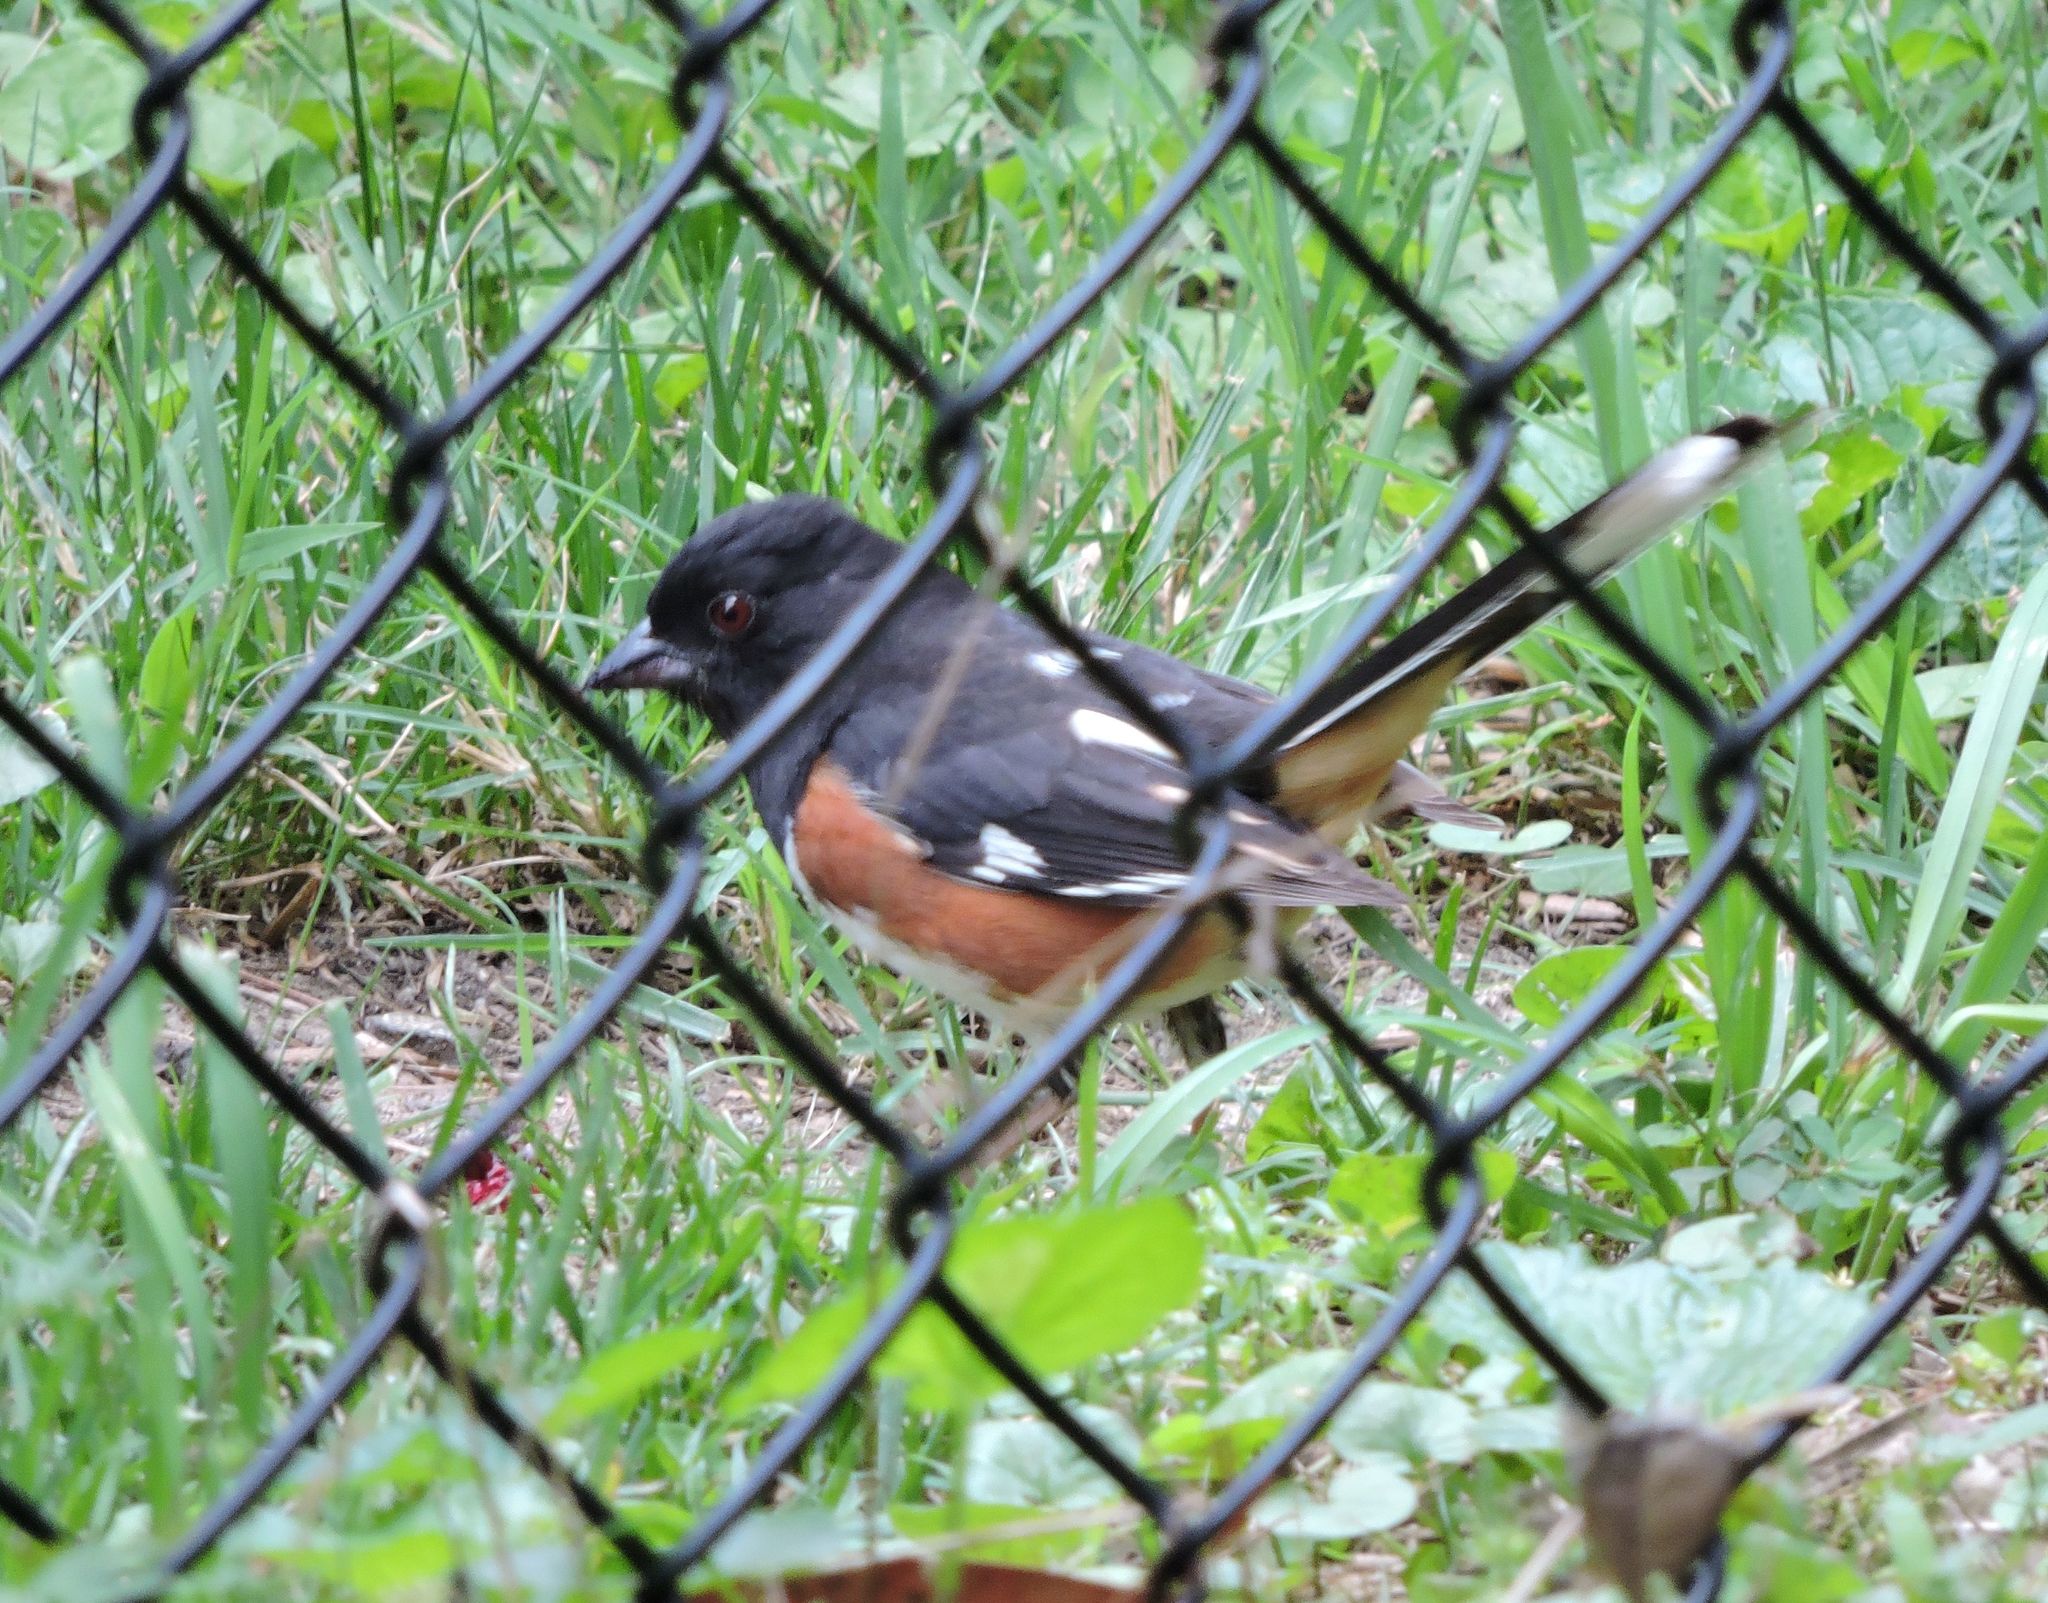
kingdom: Animalia
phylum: Chordata
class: Aves
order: Passeriformes
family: Passerellidae
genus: Pipilo
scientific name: Pipilo erythrophthalmus
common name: Eastern towhee
